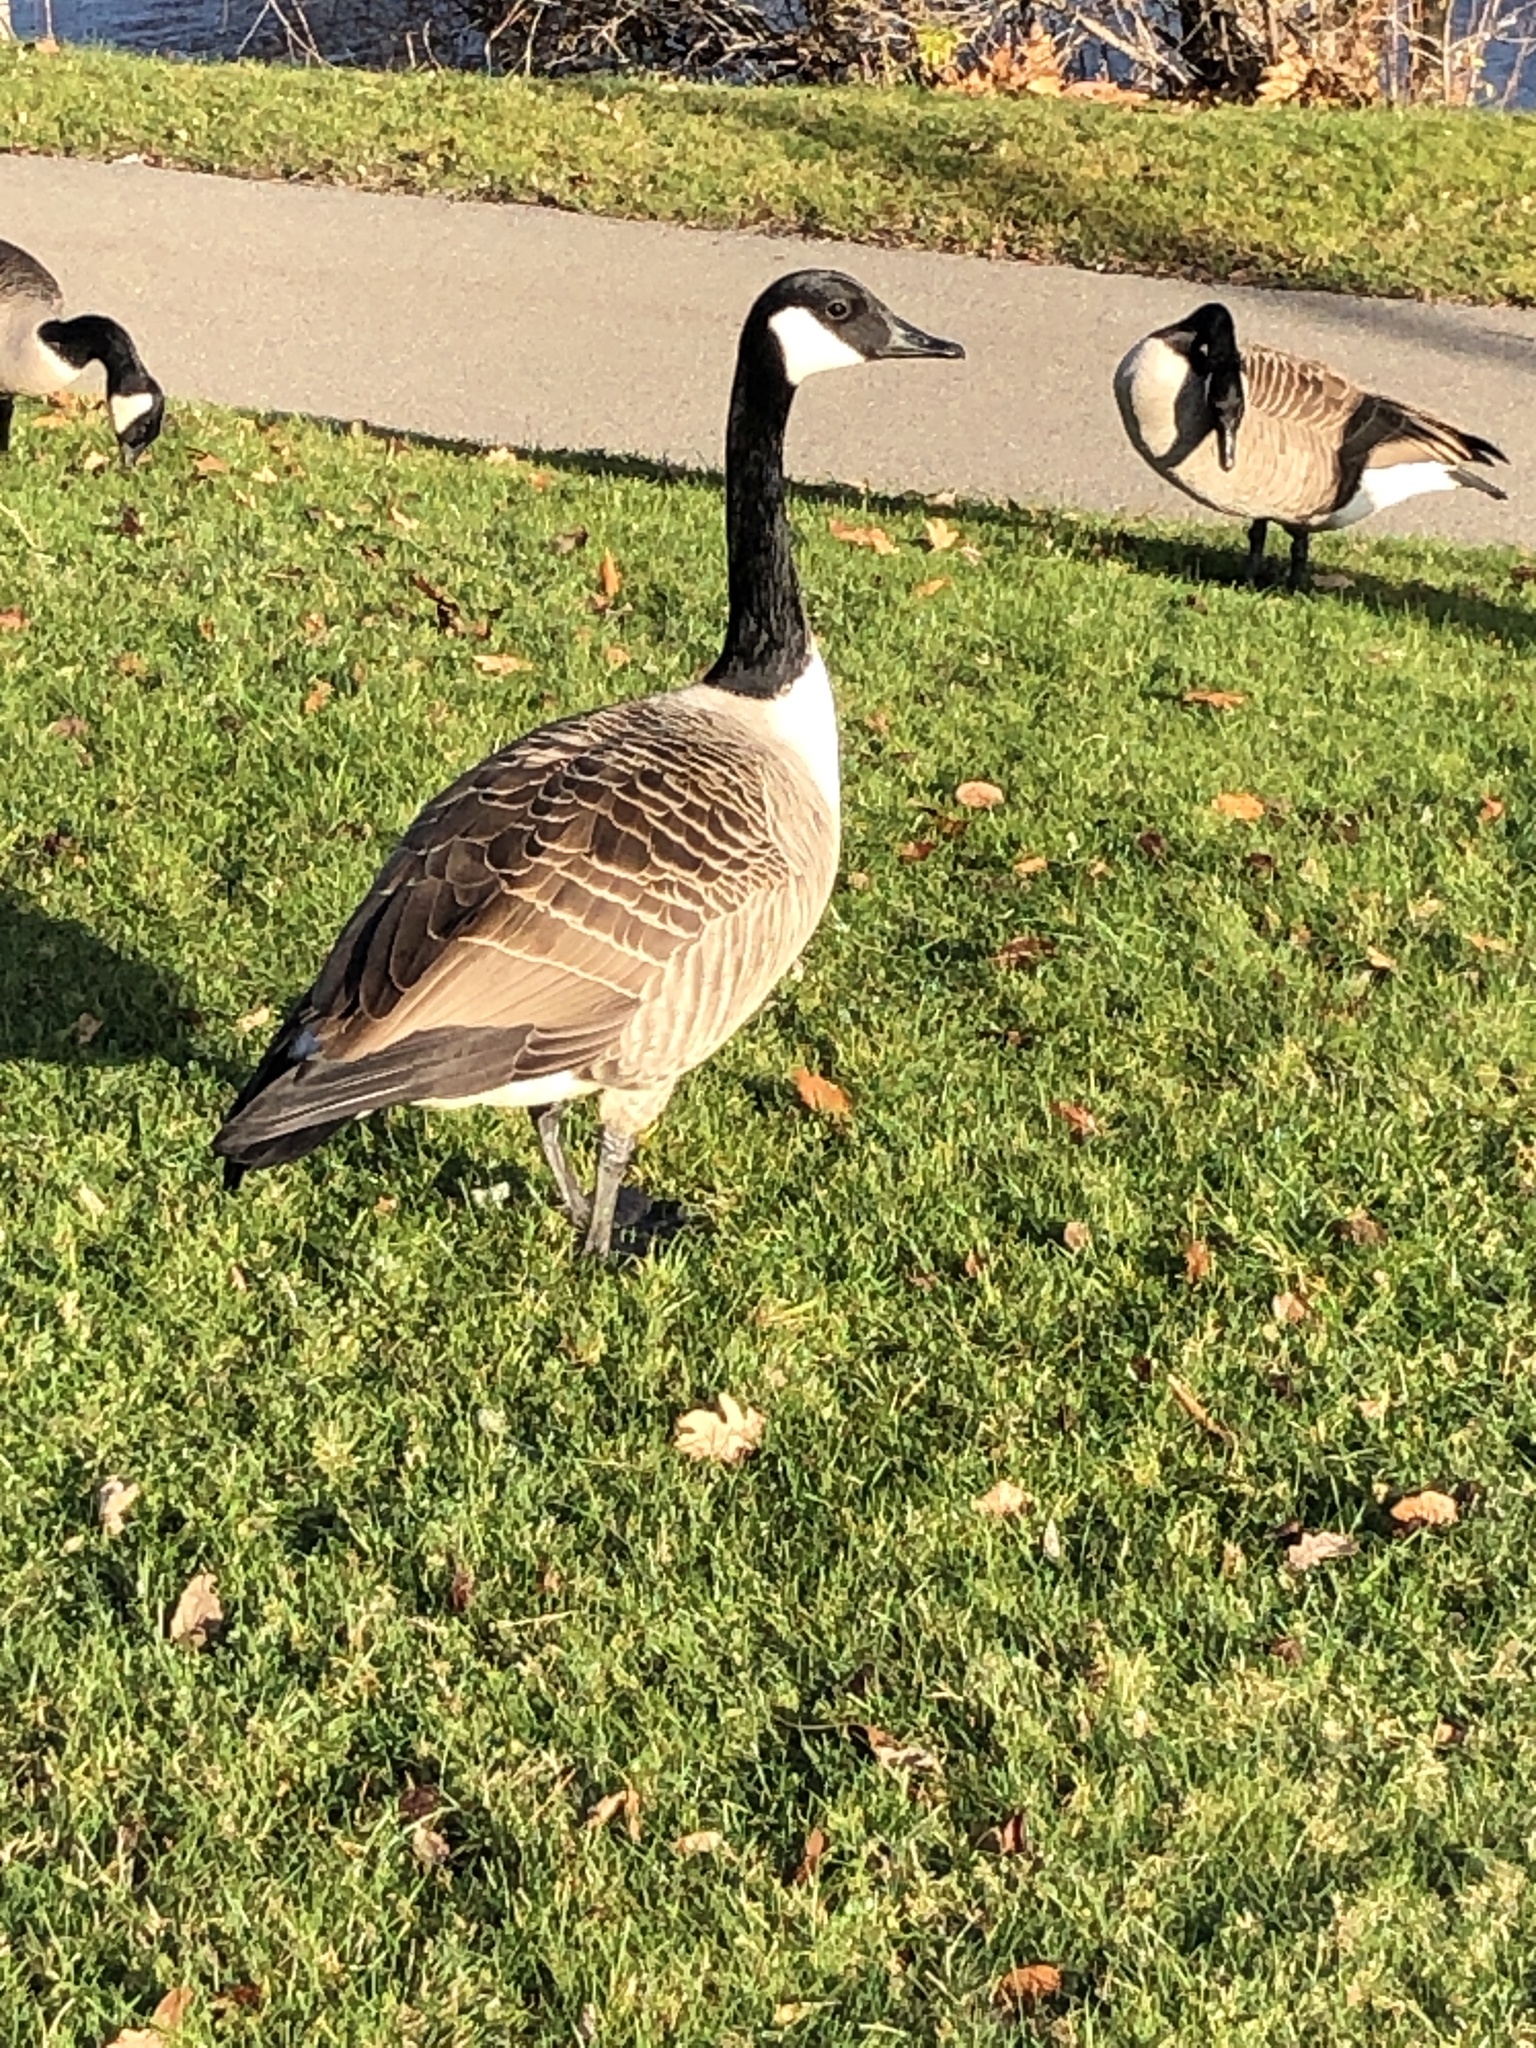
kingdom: Animalia
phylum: Chordata
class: Aves
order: Anseriformes
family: Anatidae
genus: Branta
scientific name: Branta canadensis
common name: Canada goose
